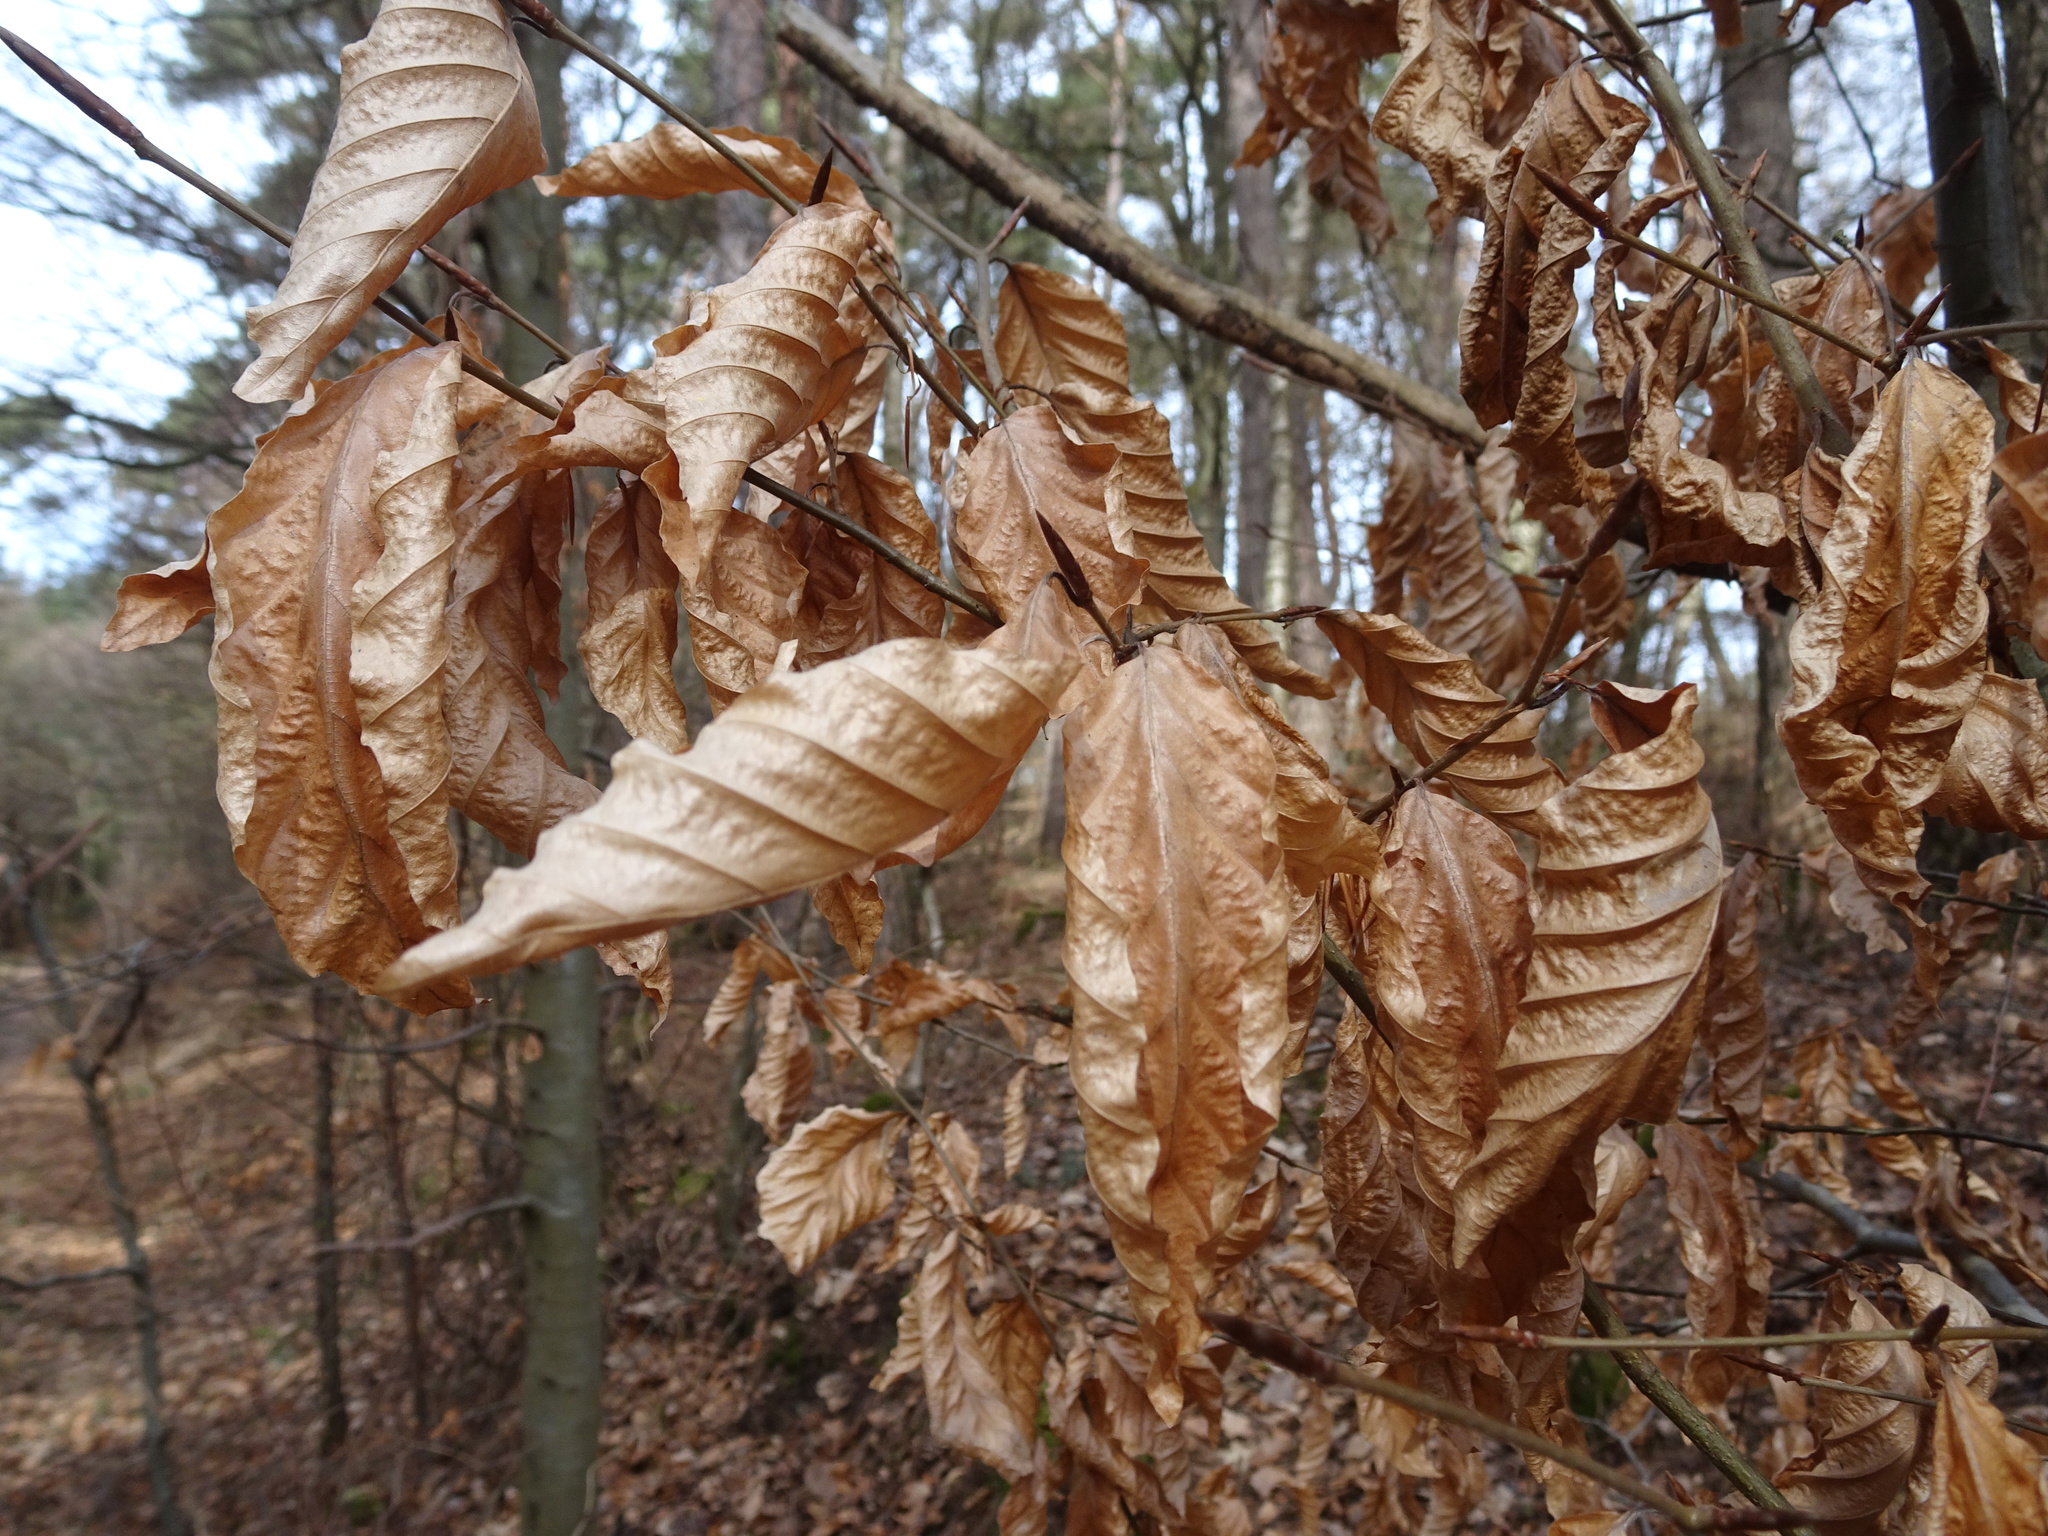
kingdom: Plantae
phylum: Tracheophyta
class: Magnoliopsida
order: Fagales
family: Fagaceae
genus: Fagus
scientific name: Fagus sylvatica
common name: Beech
